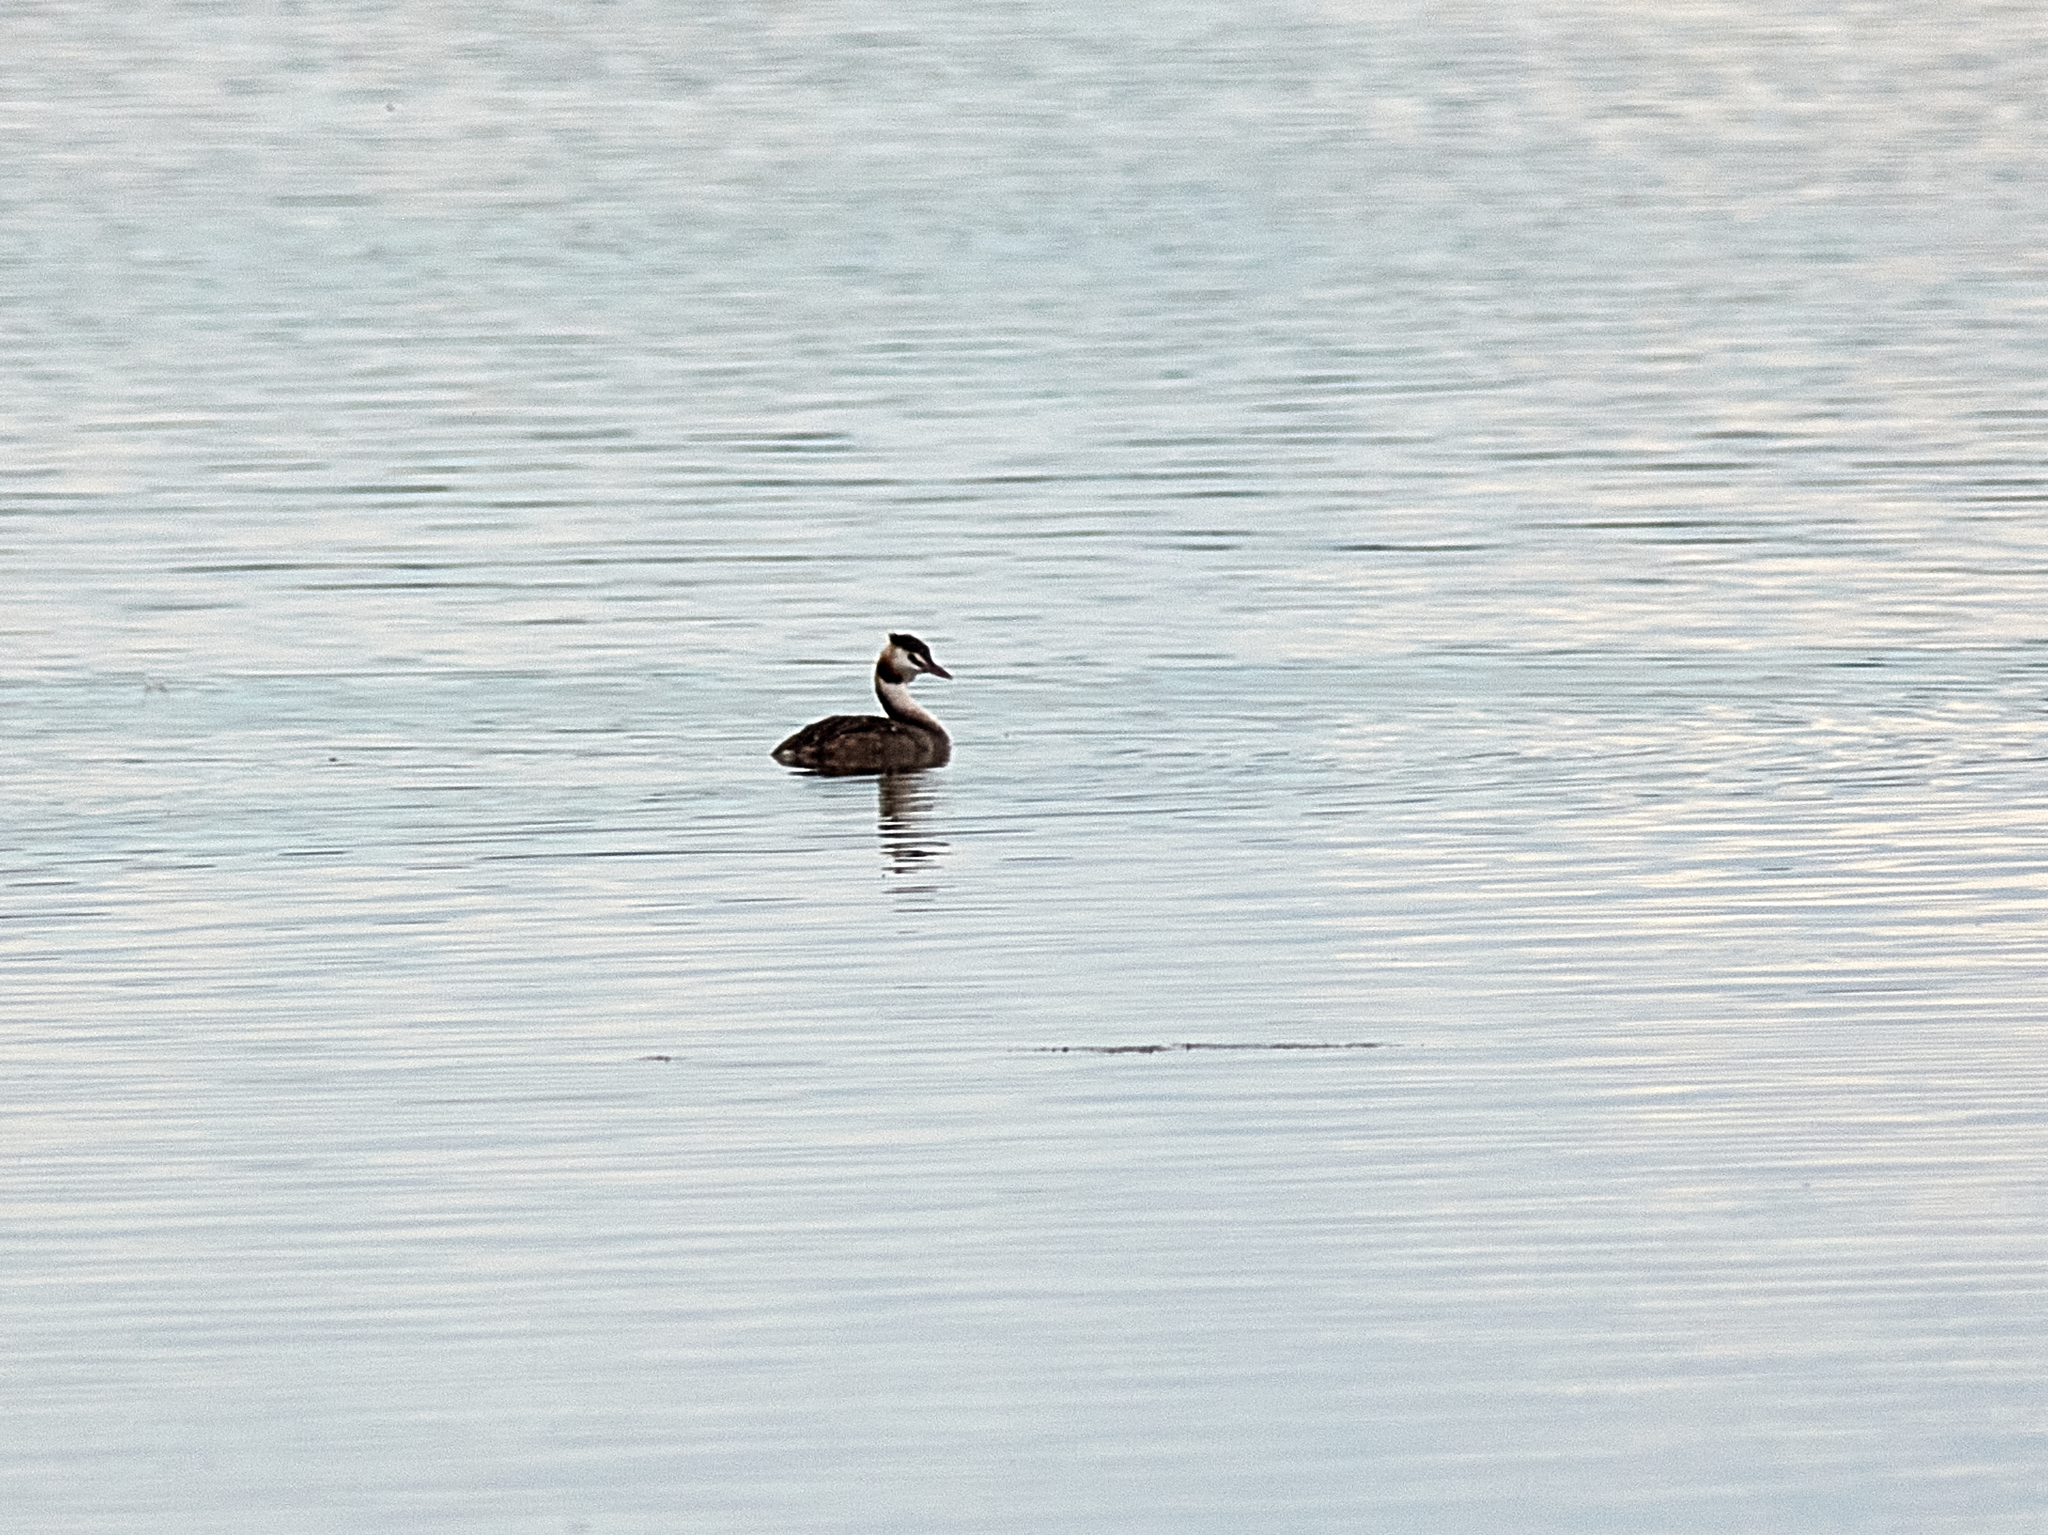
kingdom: Animalia
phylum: Chordata
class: Aves
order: Podicipediformes
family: Podicipedidae
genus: Podiceps
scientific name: Podiceps cristatus
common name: Great crested grebe
